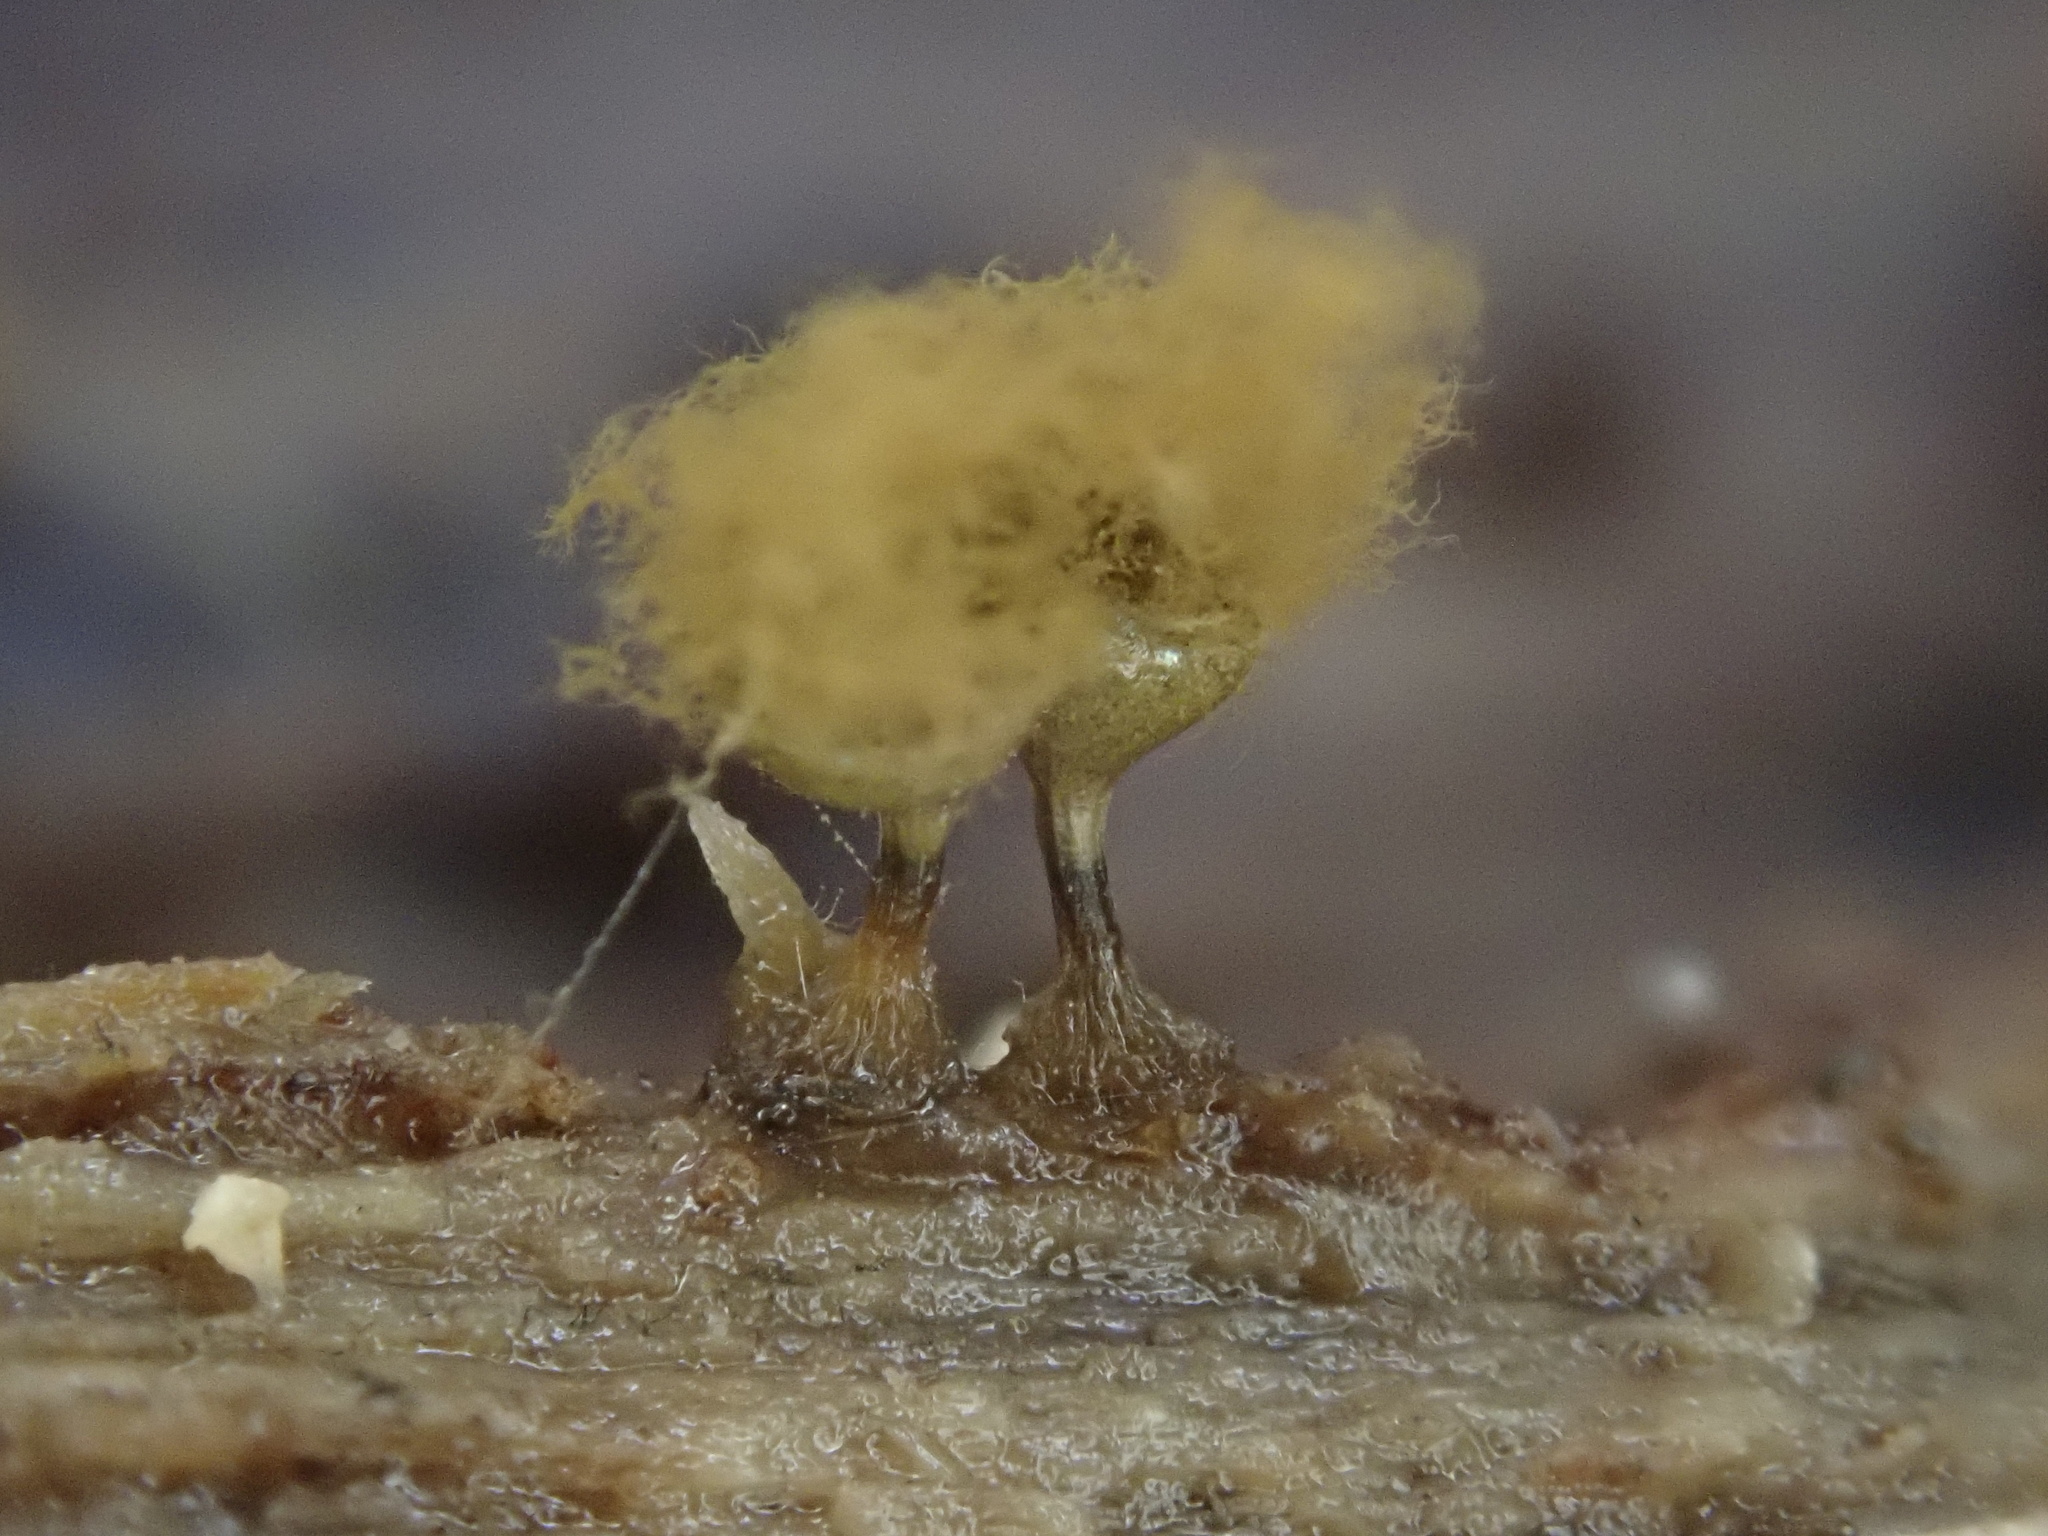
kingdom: Protozoa
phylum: Mycetozoa
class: Myxomycetes
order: Trichiales
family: Arcyriaceae
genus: Hemitrichia
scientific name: Hemitrichia decipiens
